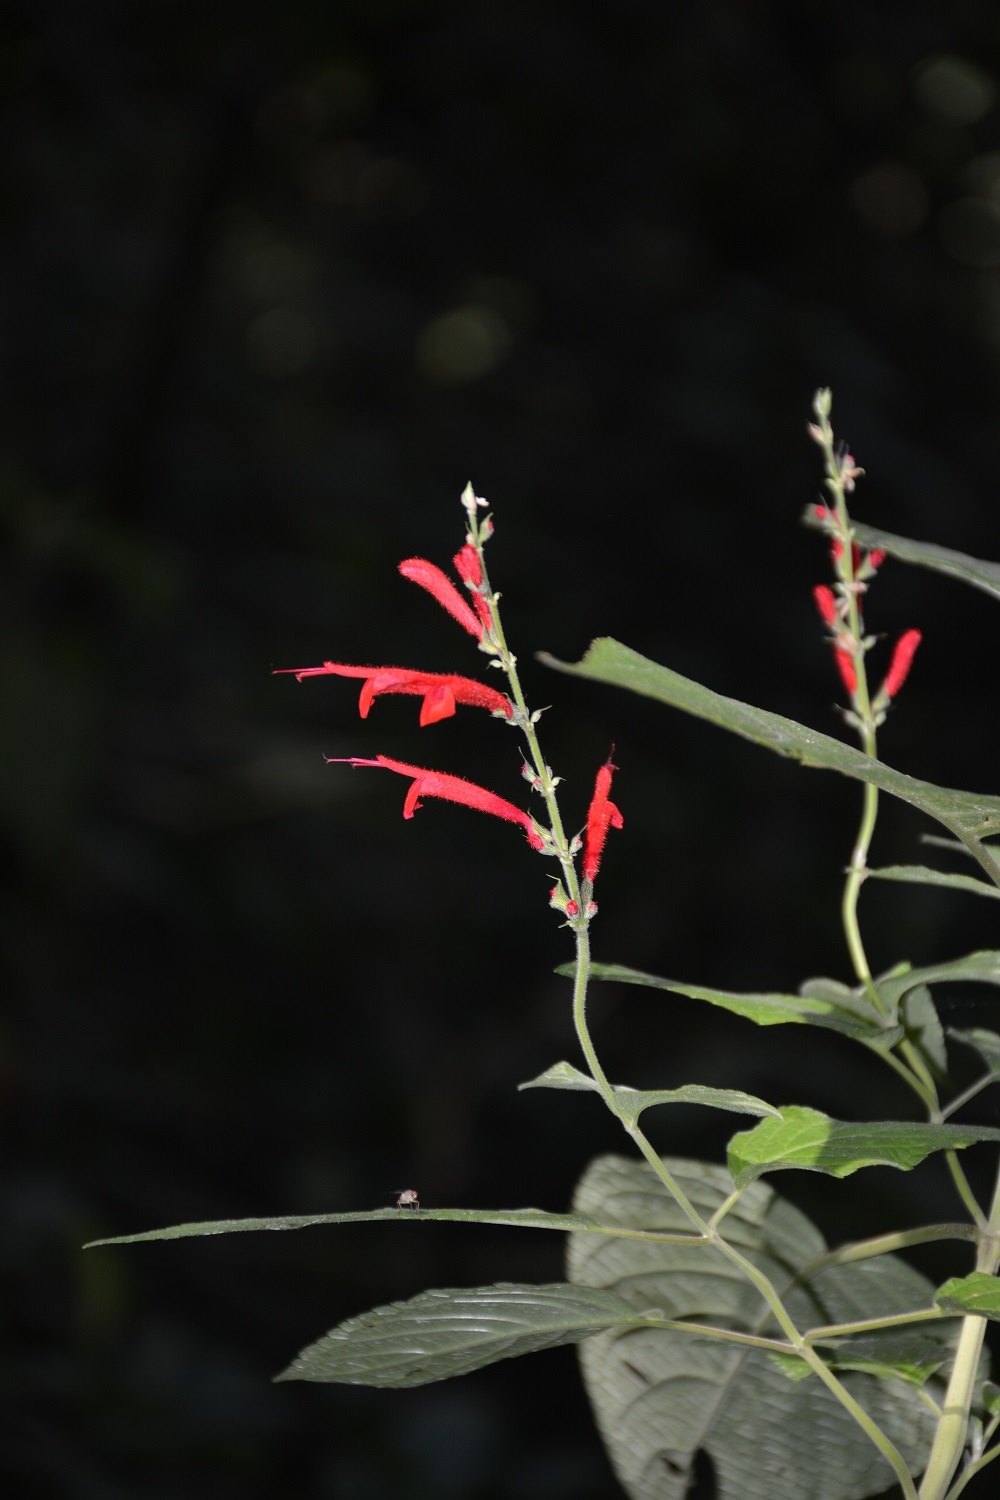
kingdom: Plantae
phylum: Tracheophyta
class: Magnoliopsida
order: Lamiales
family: Lamiaceae
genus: Salvia
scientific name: Salvia cinnabarina
